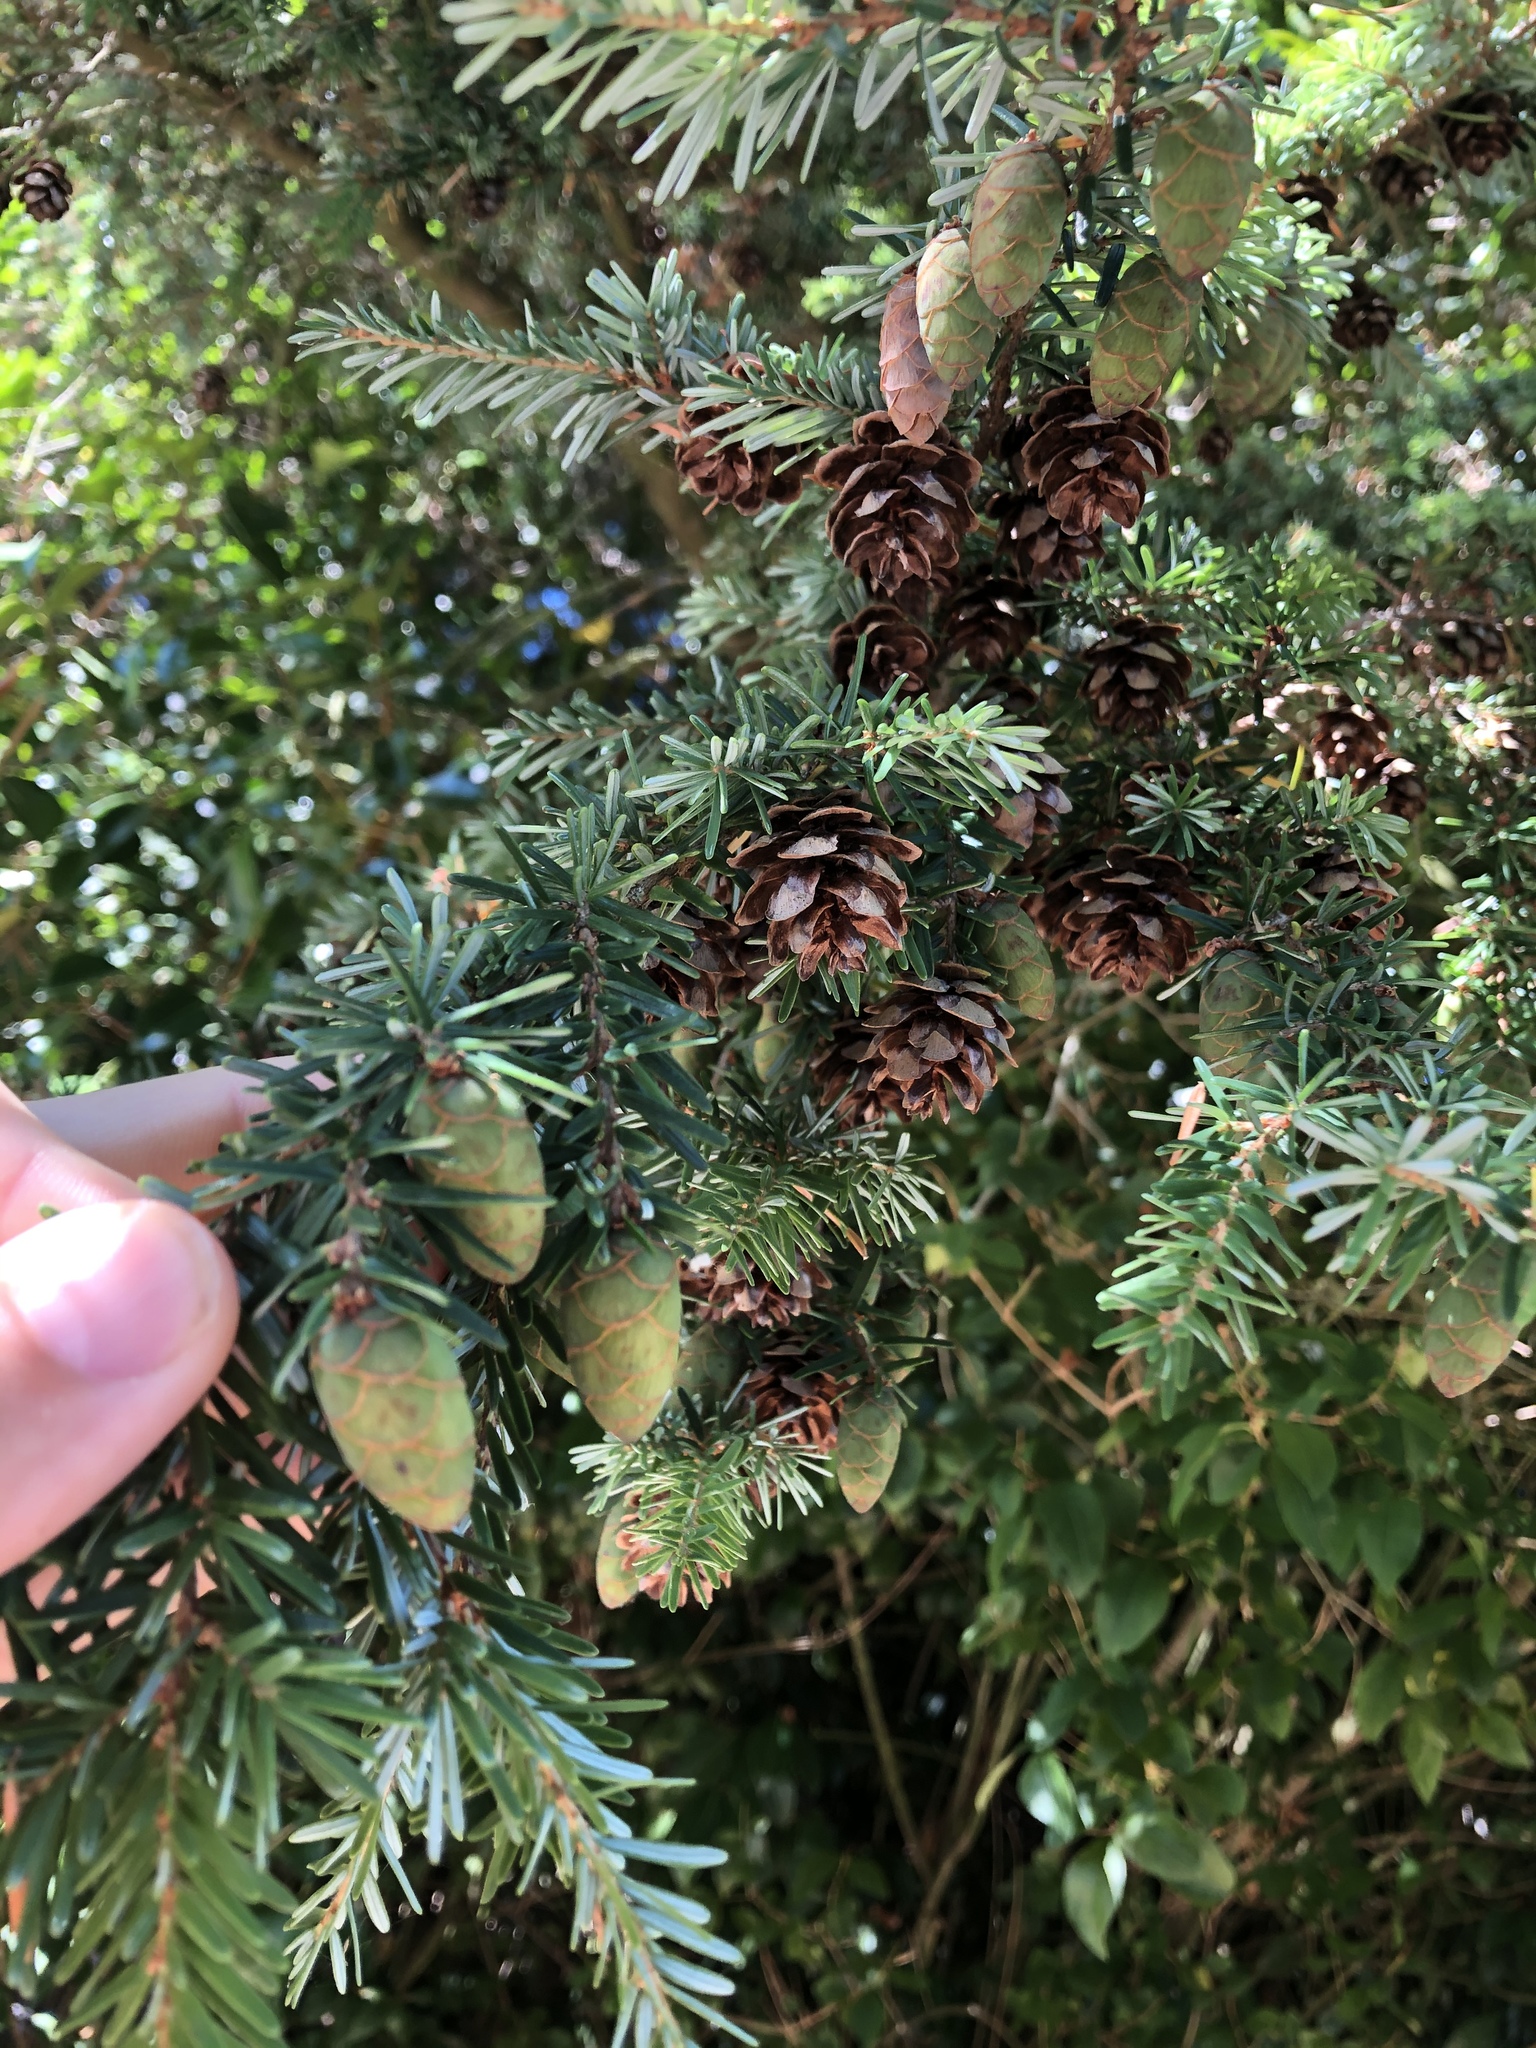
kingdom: Plantae
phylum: Tracheophyta
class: Pinopsida
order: Pinales
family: Pinaceae
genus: Tsuga
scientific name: Tsuga heterophylla
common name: Western hemlock
